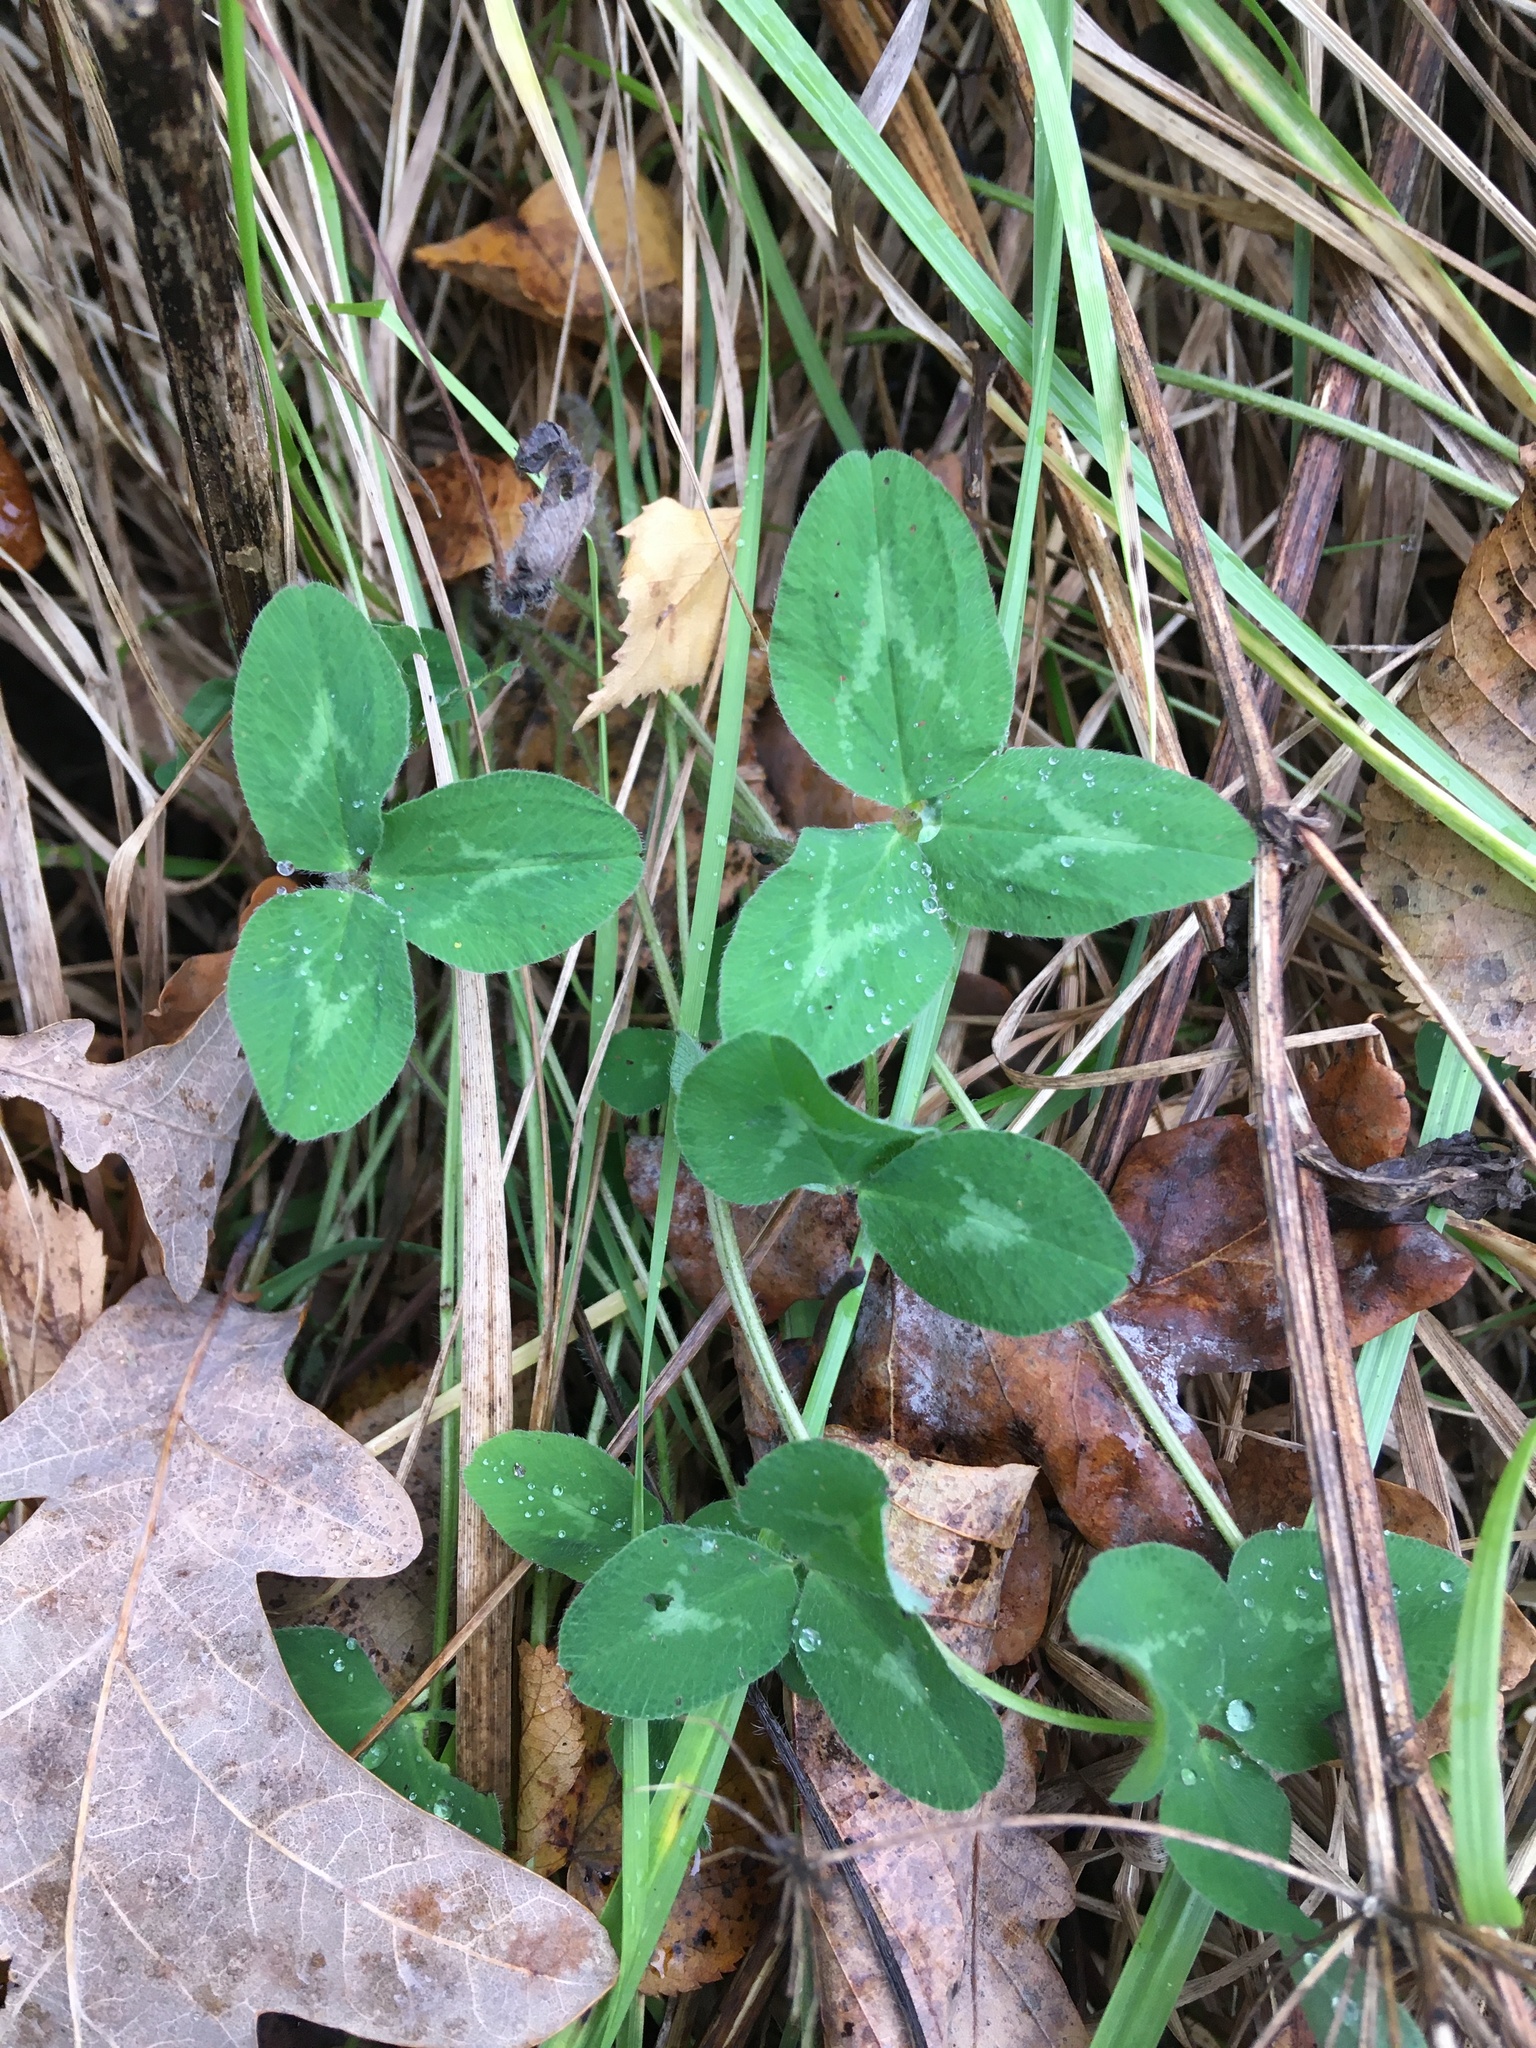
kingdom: Plantae
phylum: Tracheophyta
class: Magnoliopsida
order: Fabales
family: Fabaceae
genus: Trifolium
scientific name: Trifolium pratense
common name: Red clover
